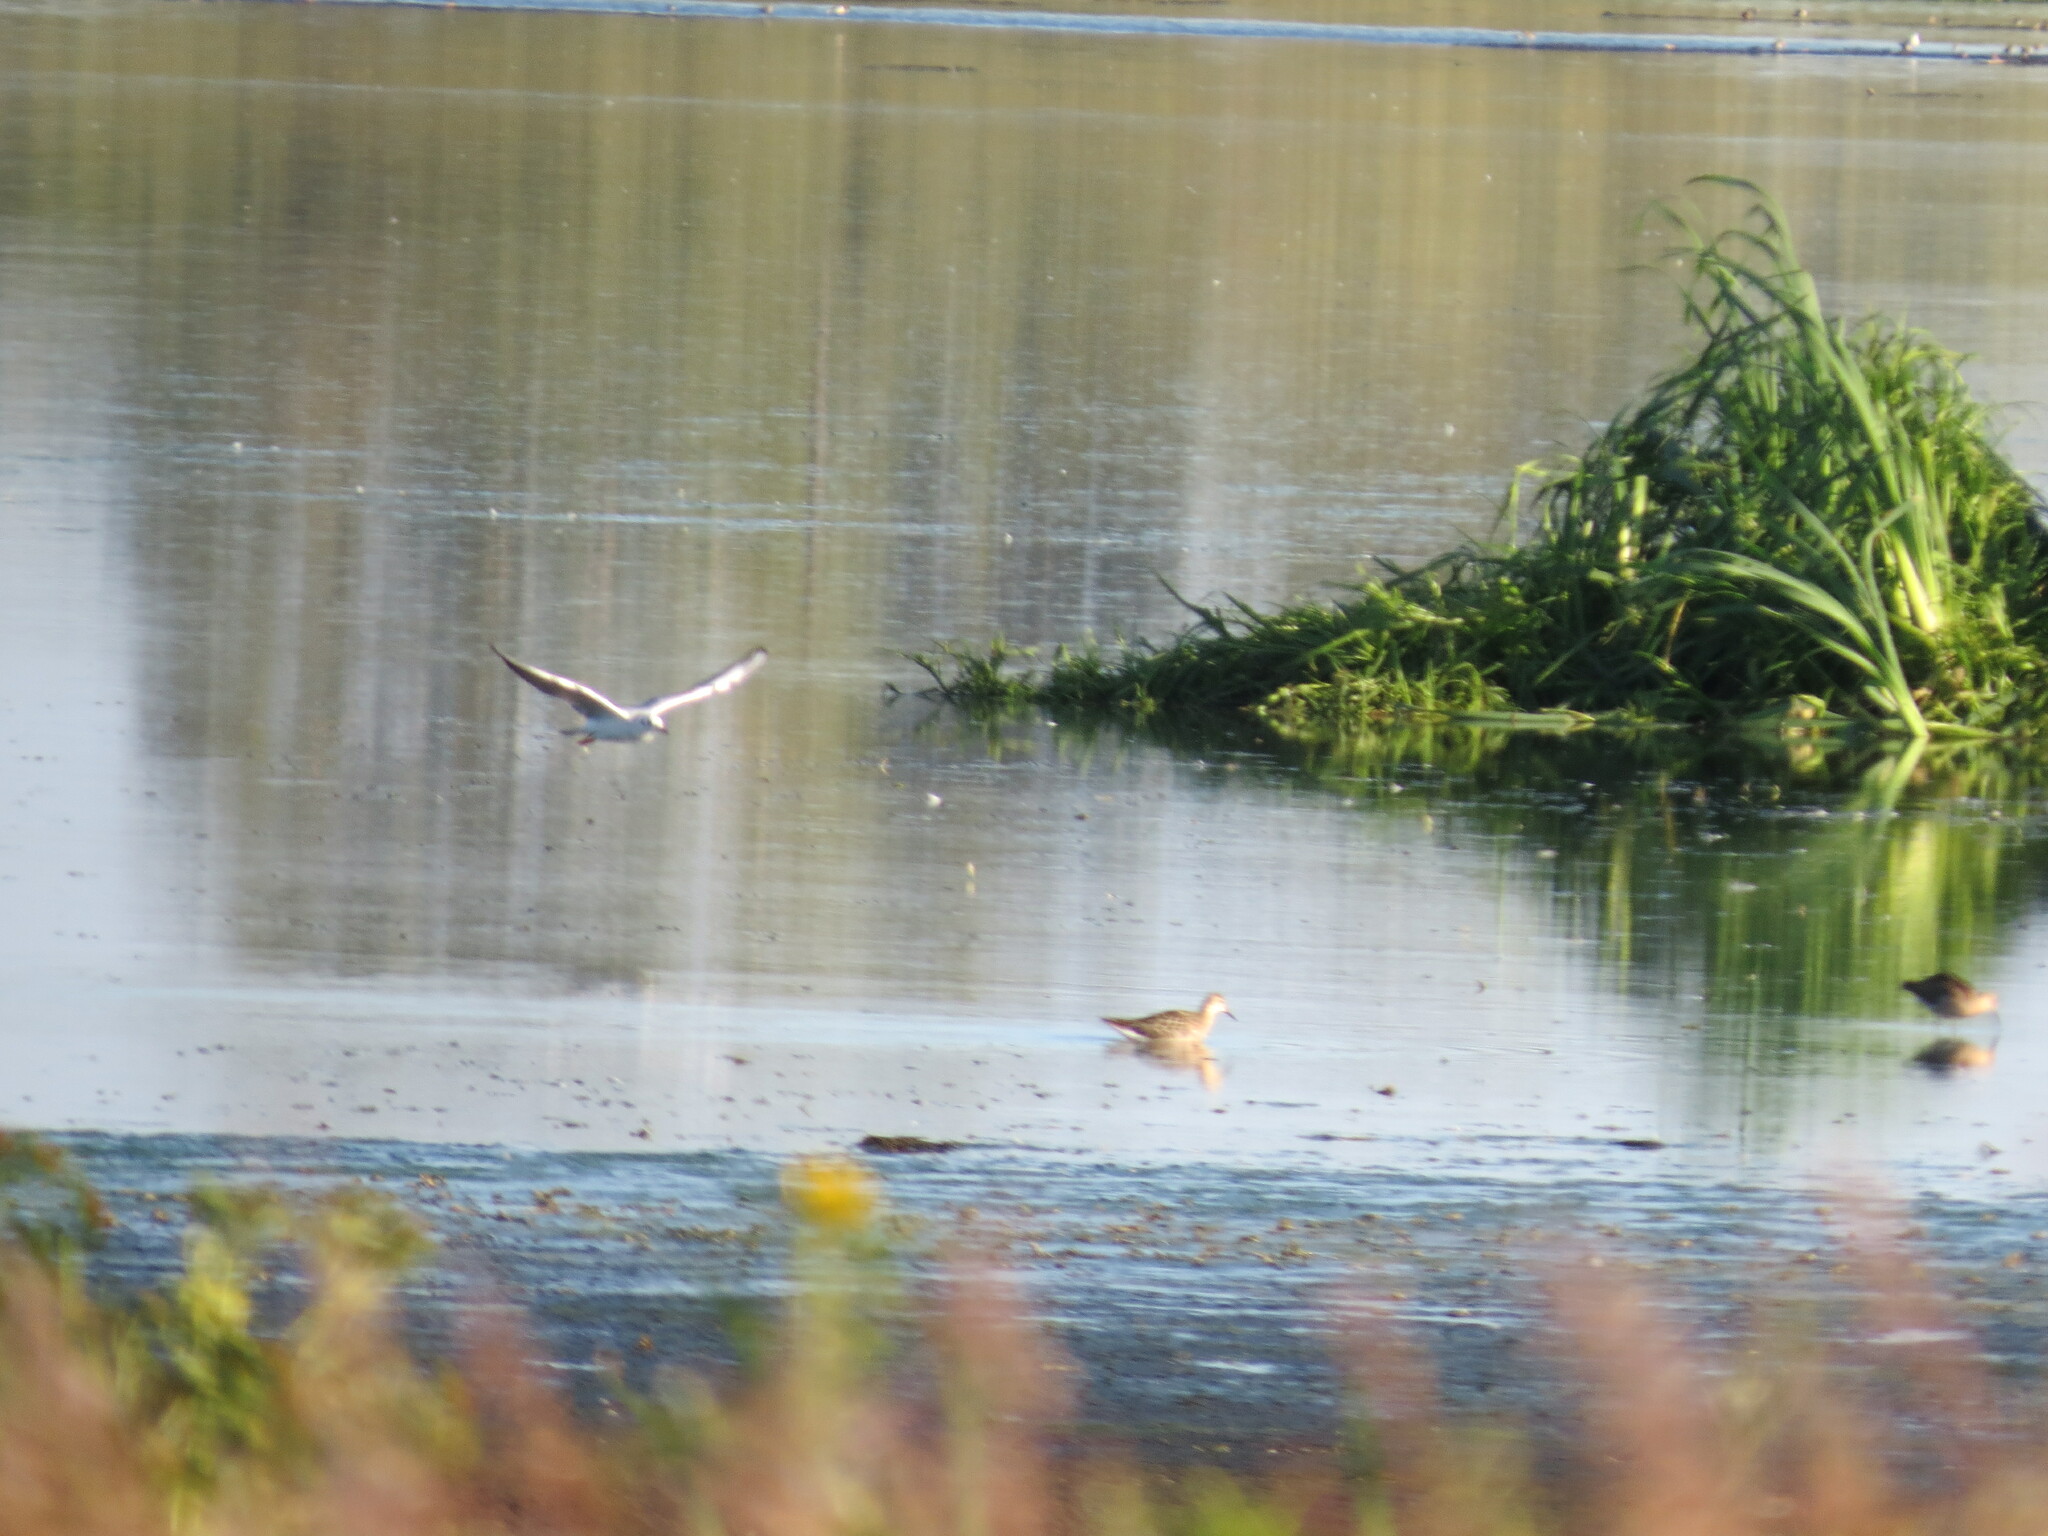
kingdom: Animalia
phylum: Chordata
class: Aves
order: Charadriiformes
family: Laridae
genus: Chroicocephalus
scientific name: Chroicocephalus ridibundus
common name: Black-headed gull
